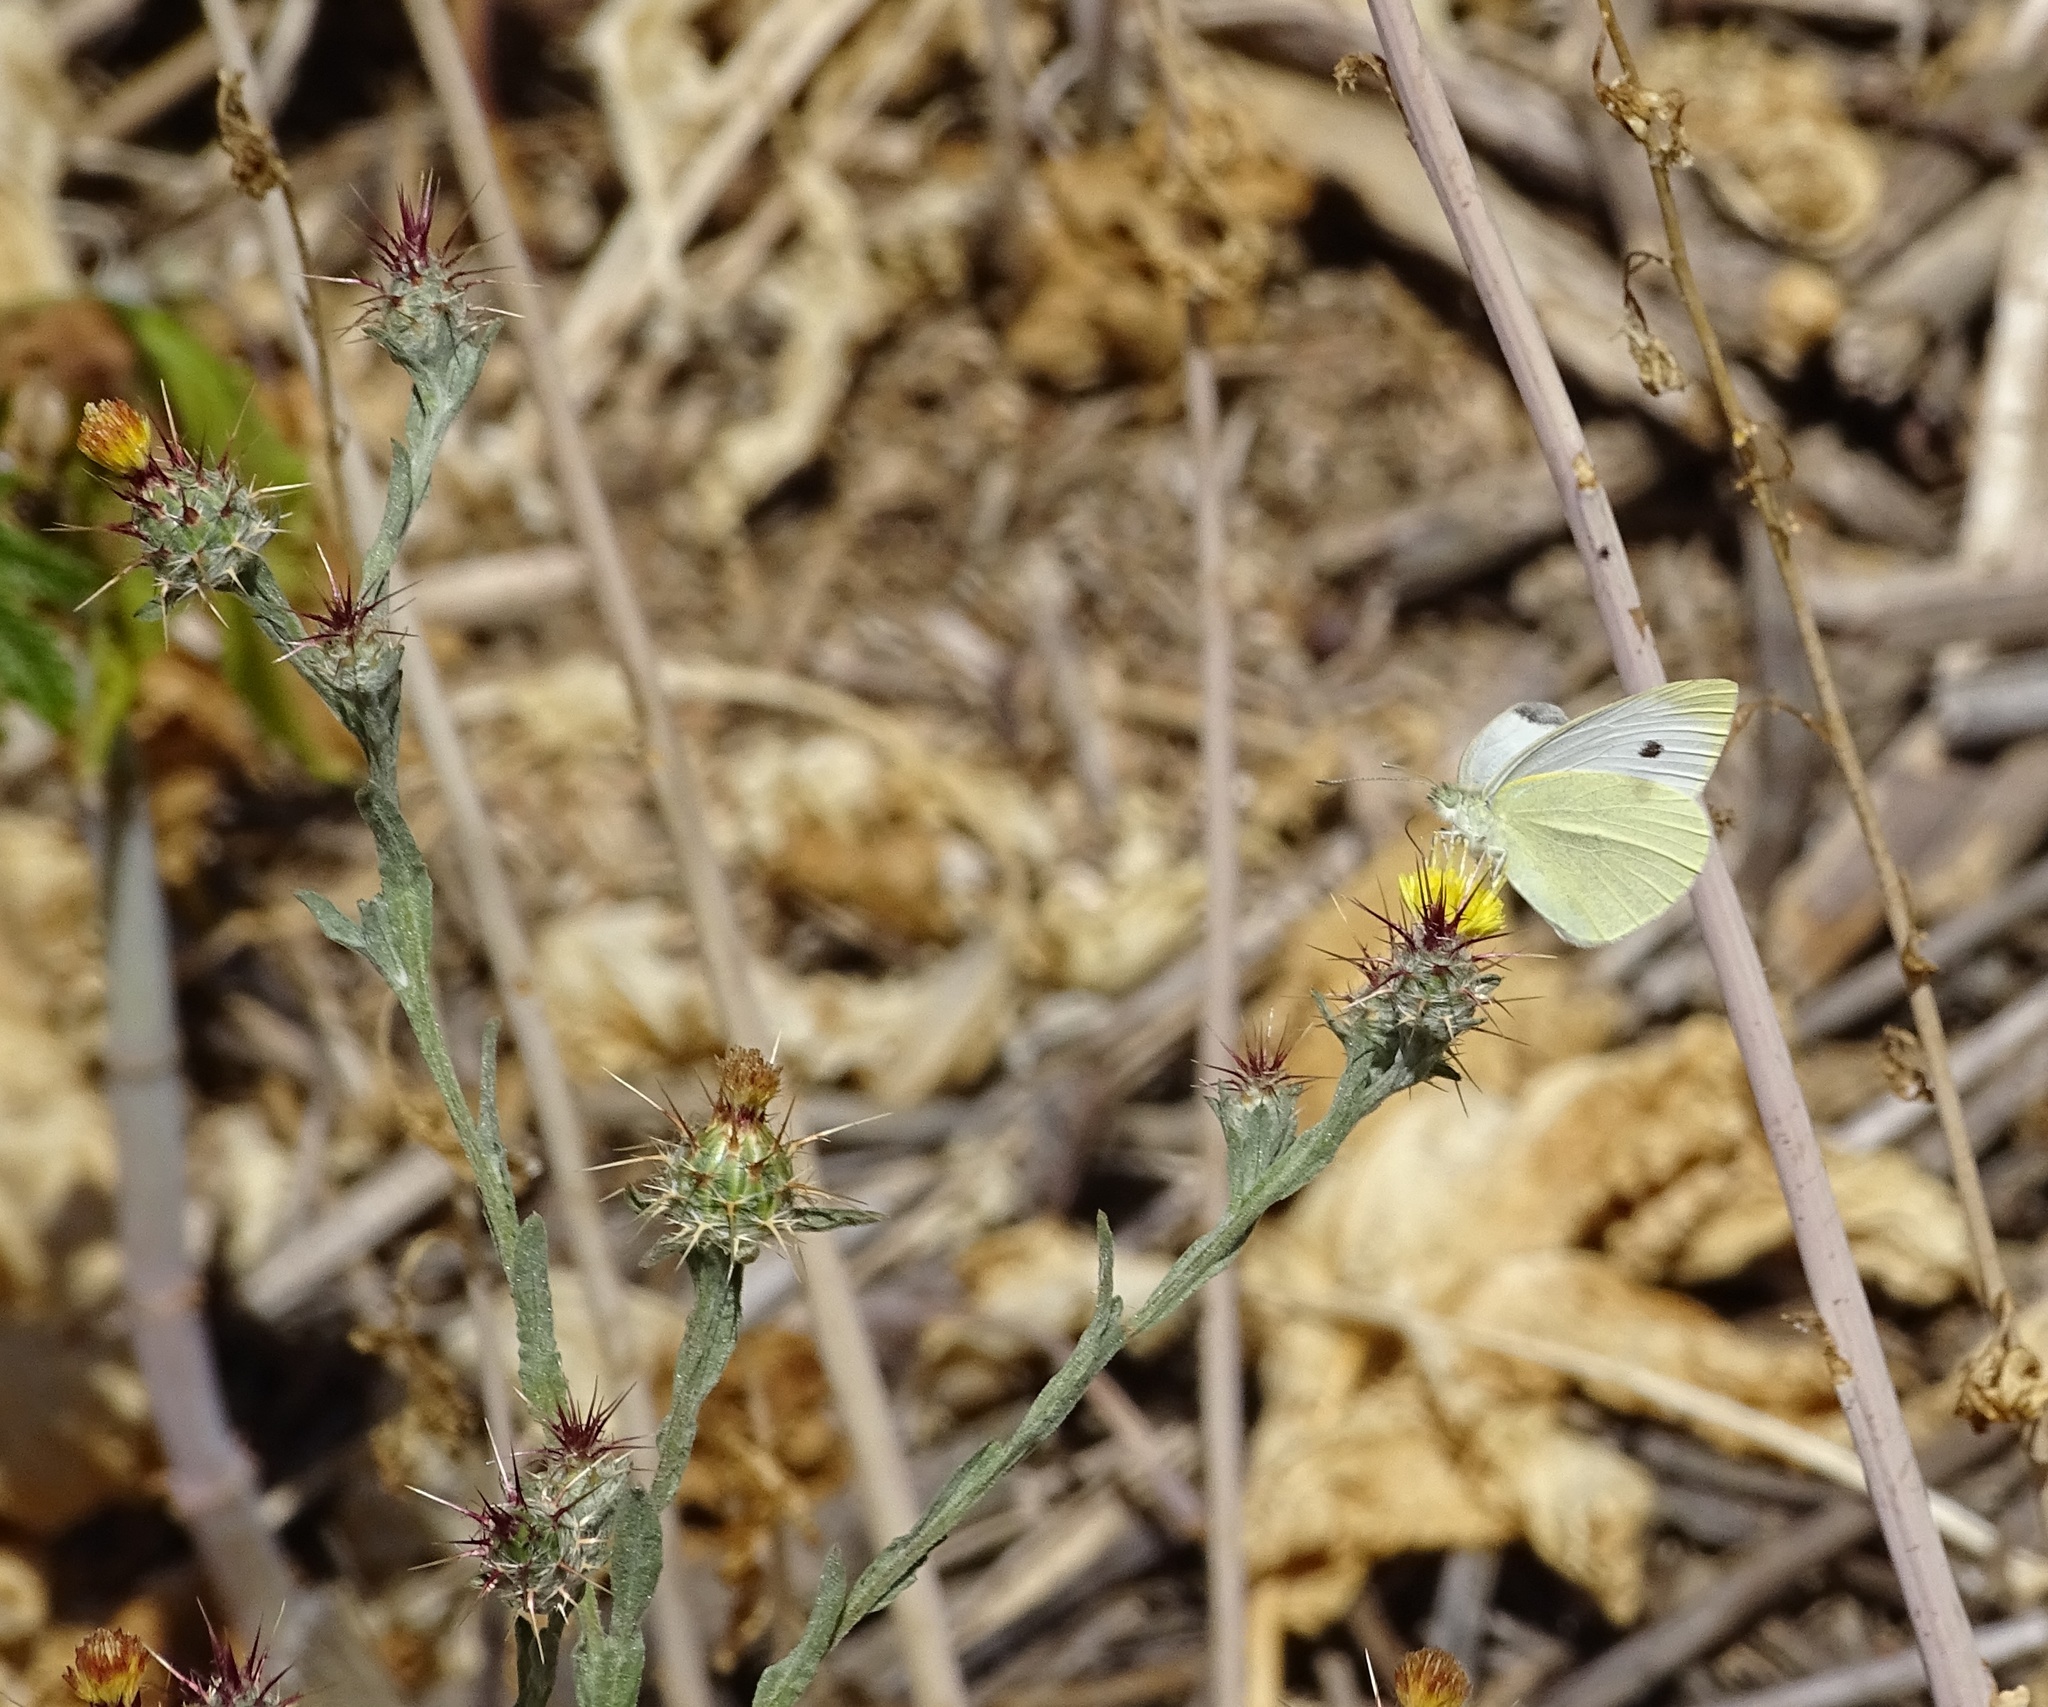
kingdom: Animalia
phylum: Arthropoda
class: Insecta
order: Lepidoptera
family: Pieridae
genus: Pieris
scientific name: Pieris rapae
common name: Small white
